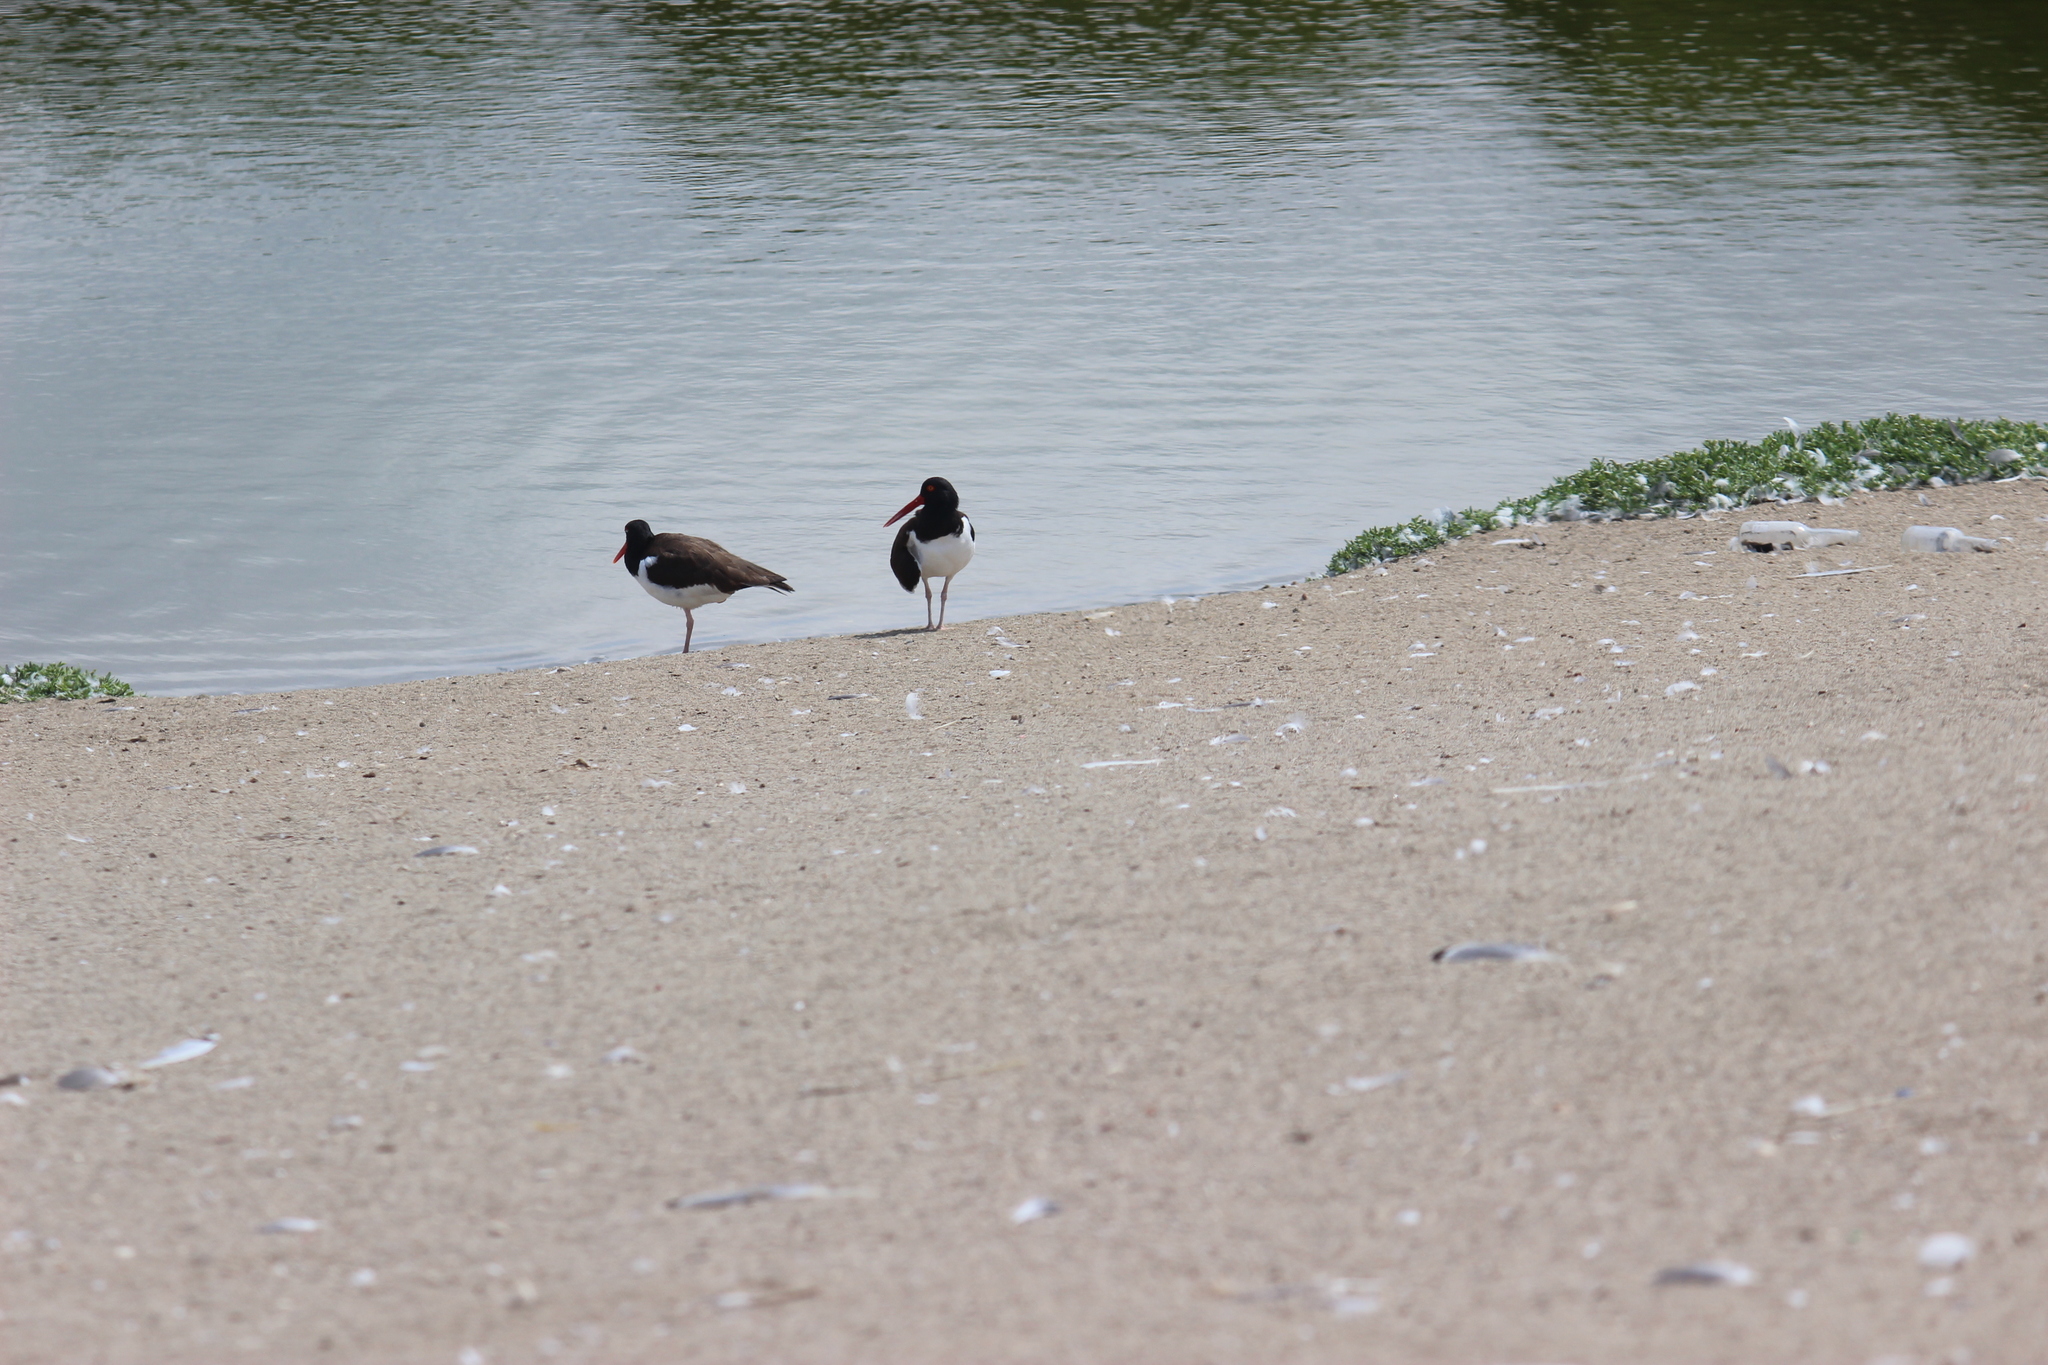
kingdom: Animalia
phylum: Chordata
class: Aves
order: Charadriiformes
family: Haematopodidae
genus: Haematopus
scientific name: Haematopus palliatus
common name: American oystercatcher
